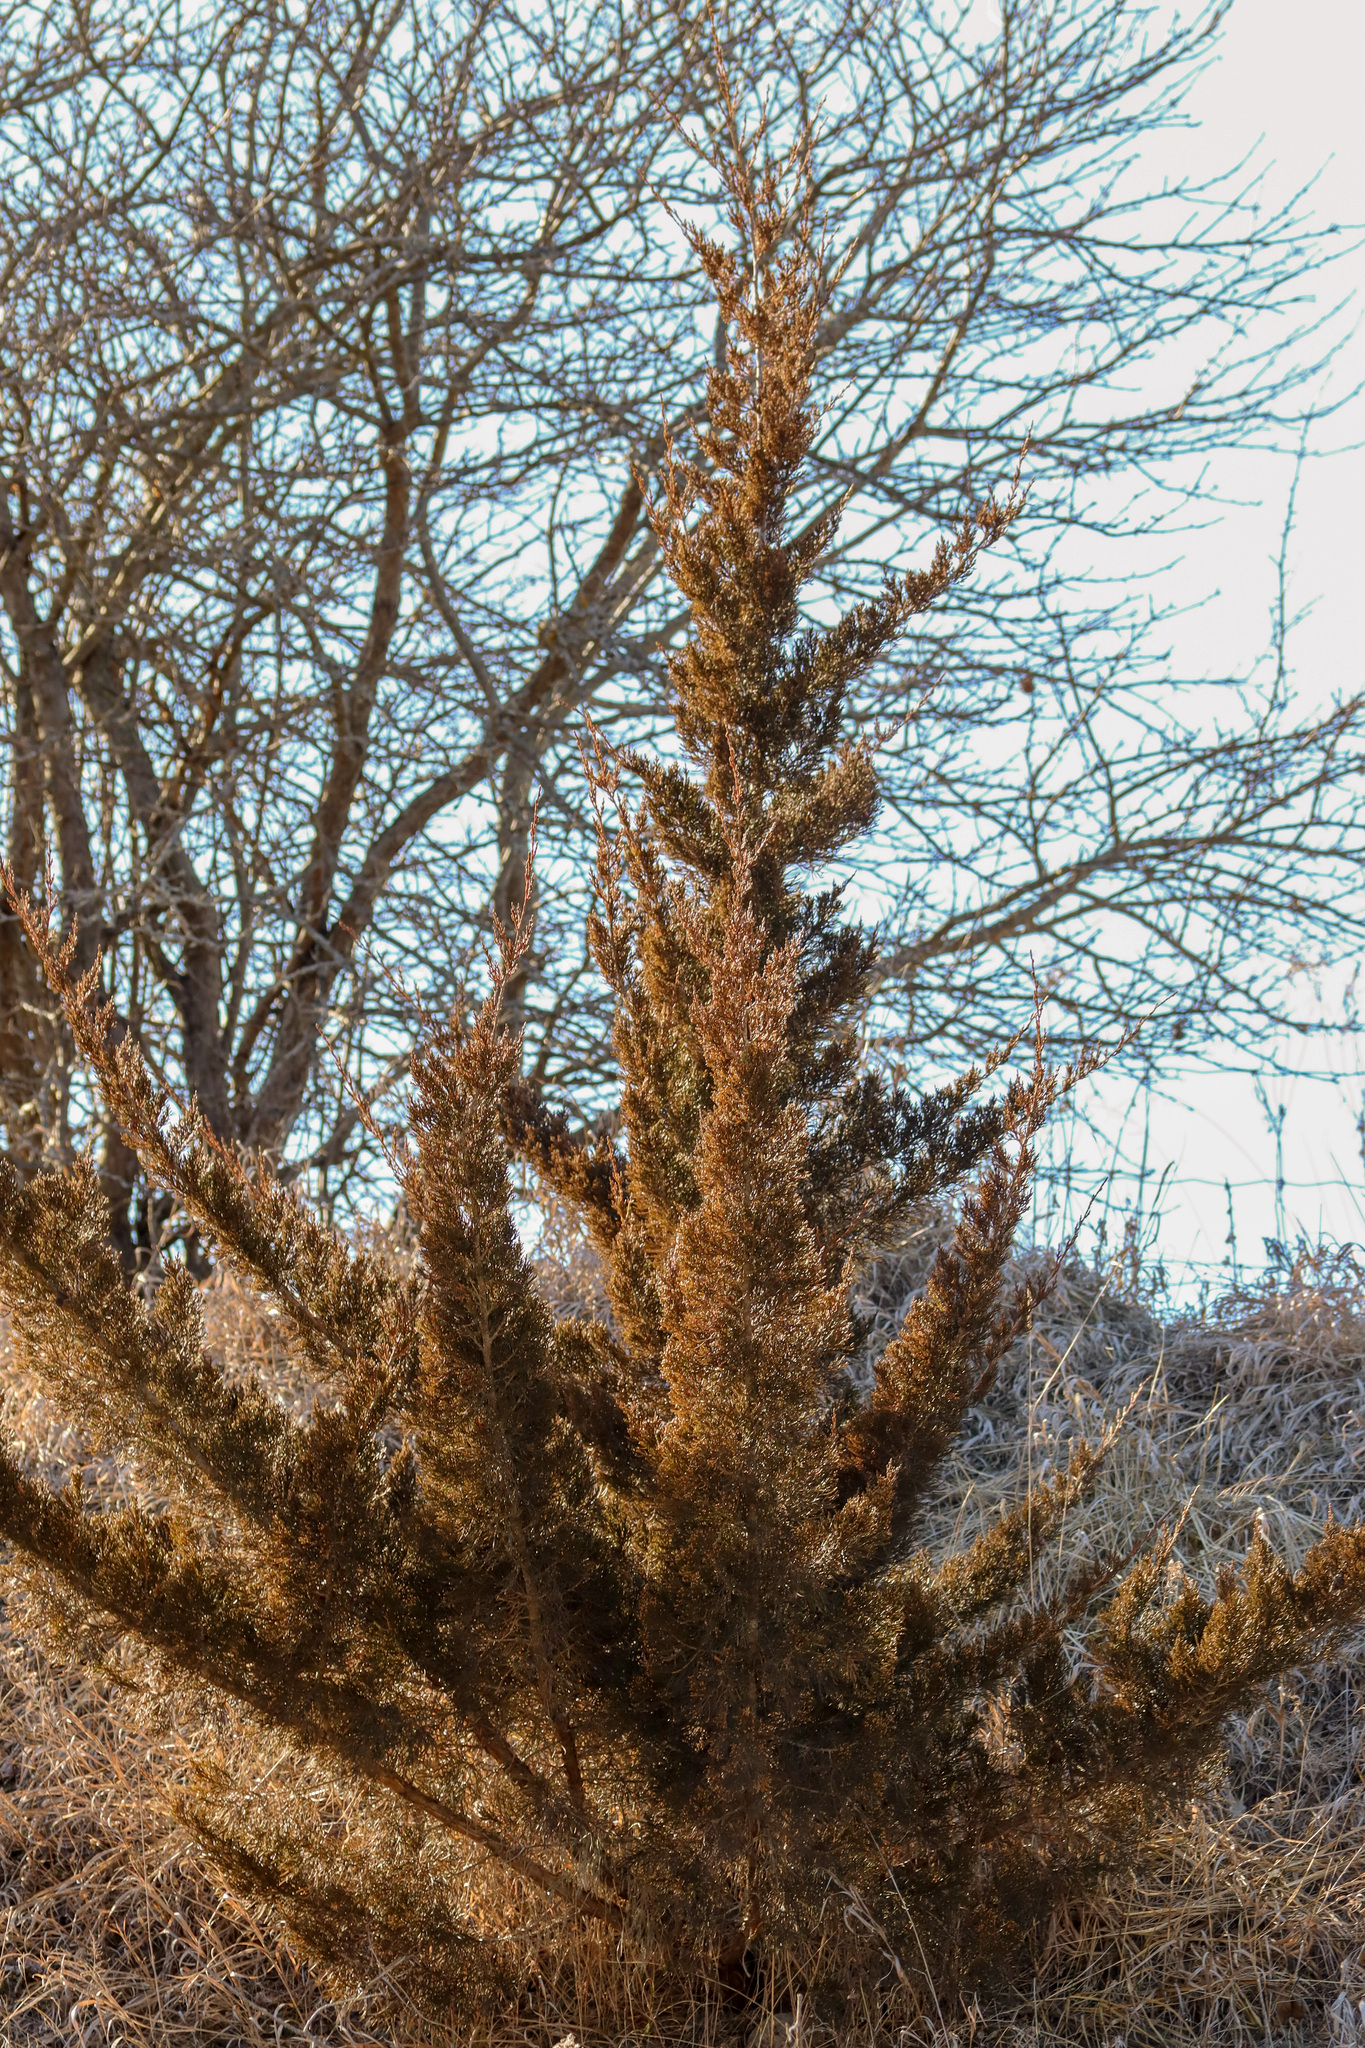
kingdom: Plantae
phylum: Tracheophyta
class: Pinopsida
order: Pinales
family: Cupressaceae
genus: Juniperus
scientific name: Juniperus virginiana
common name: Red juniper
